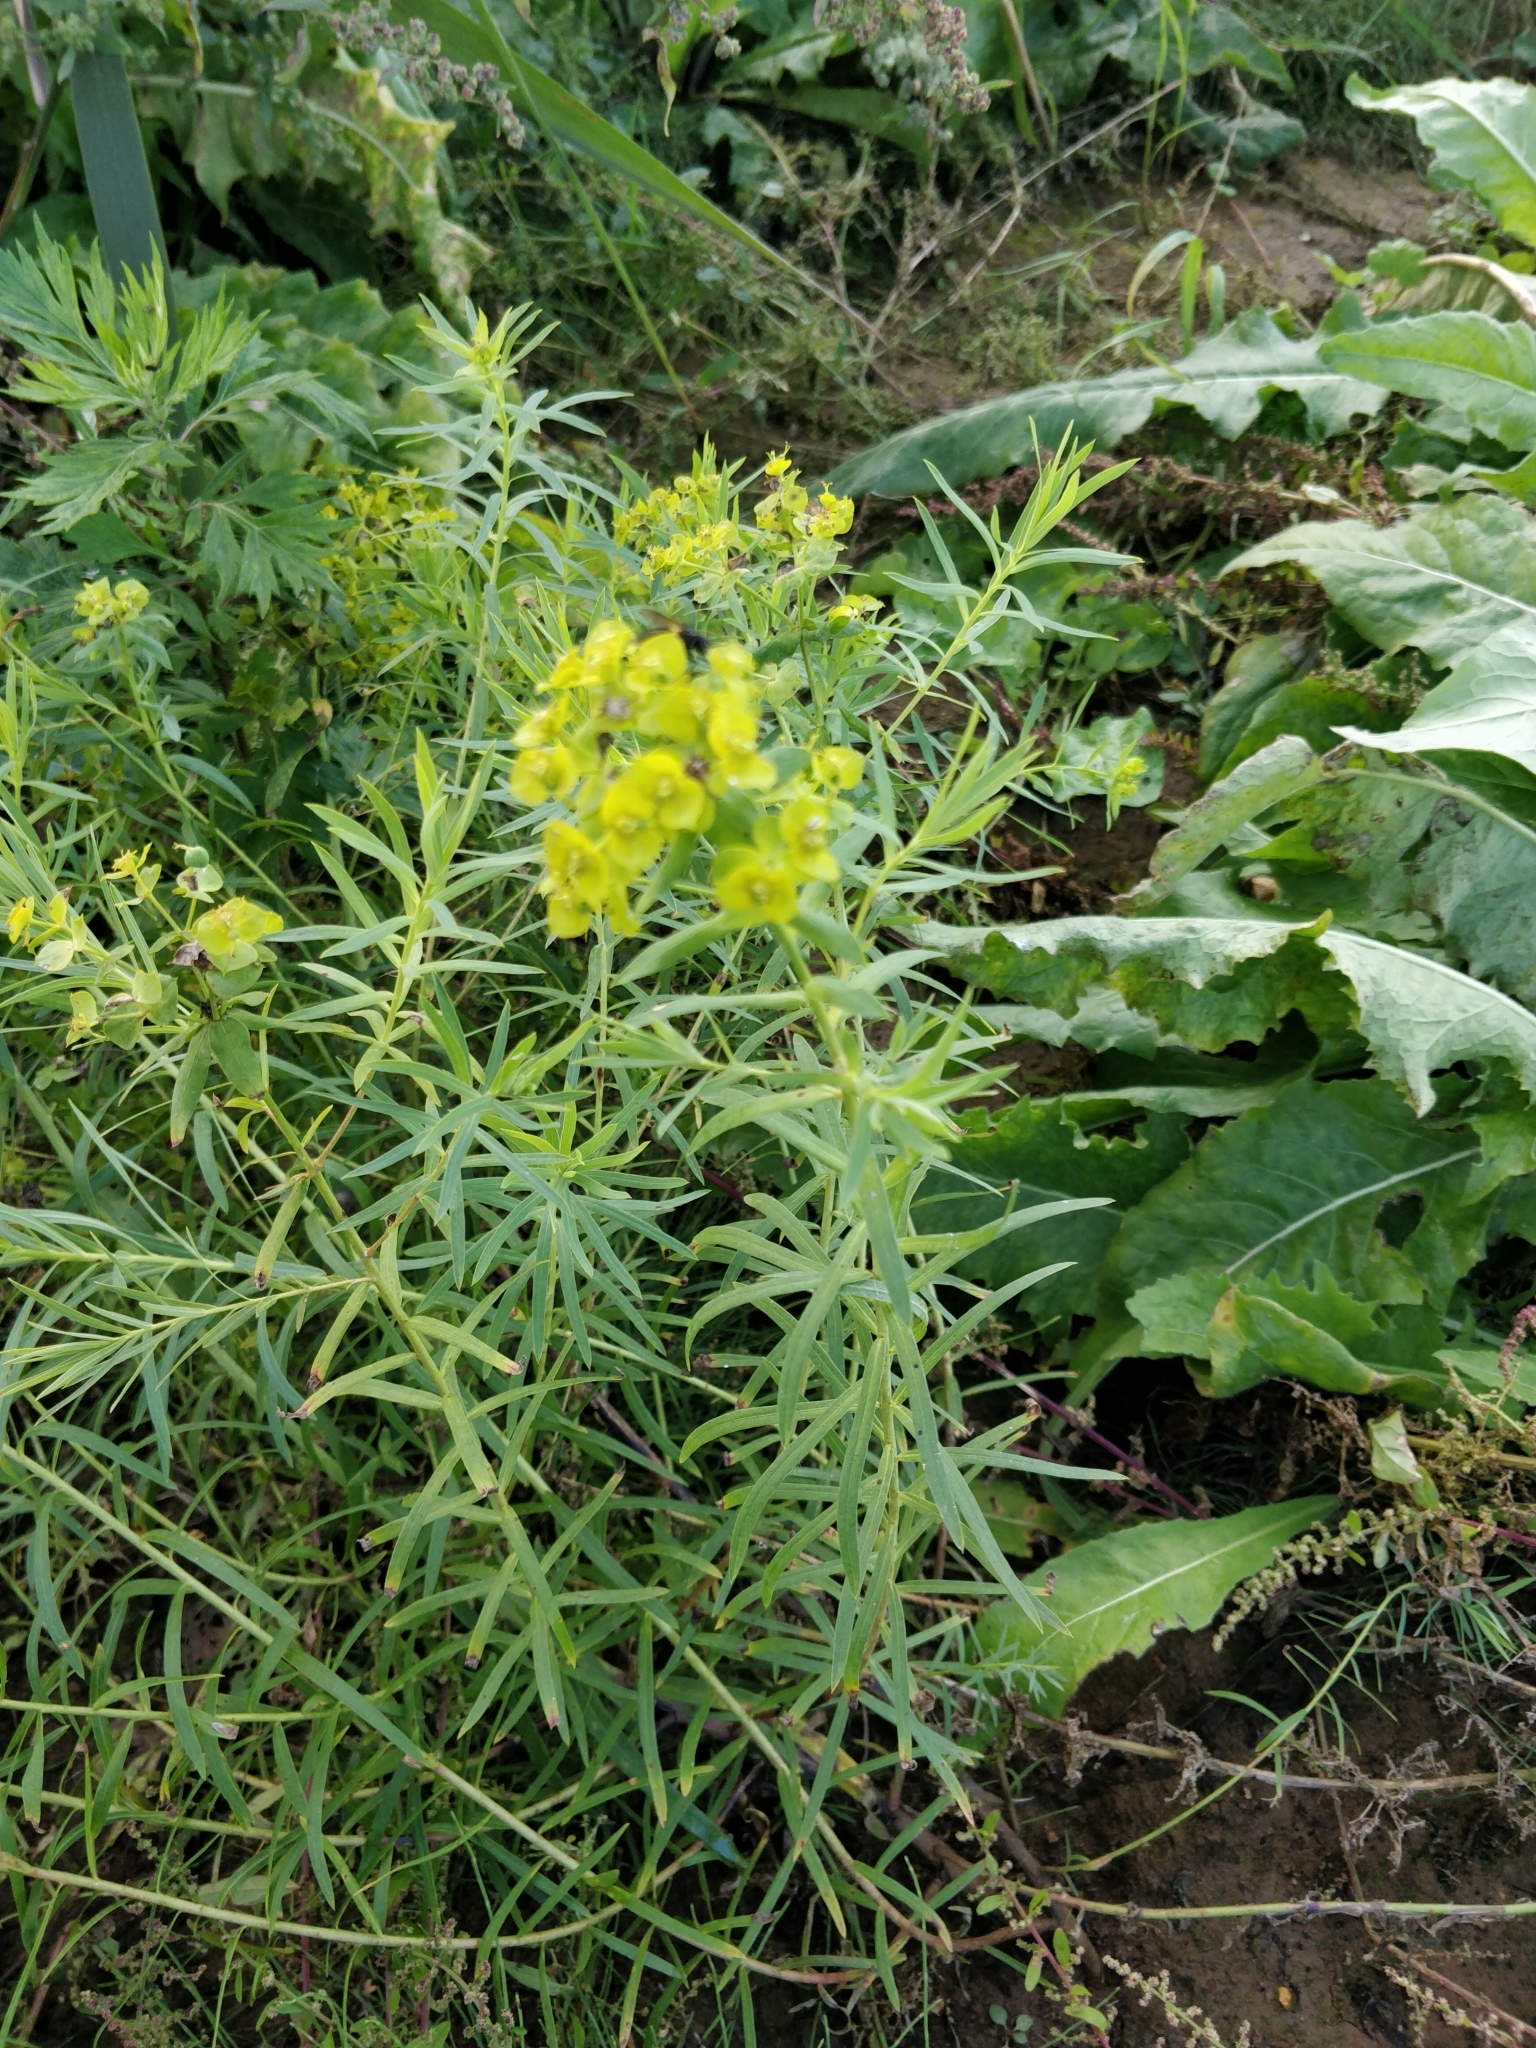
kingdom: Plantae
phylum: Tracheophyta
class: Magnoliopsida
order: Malpighiales
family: Euphorbiaceae
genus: Euphorbia
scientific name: Euphorbia virgata
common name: Leafy spurge
